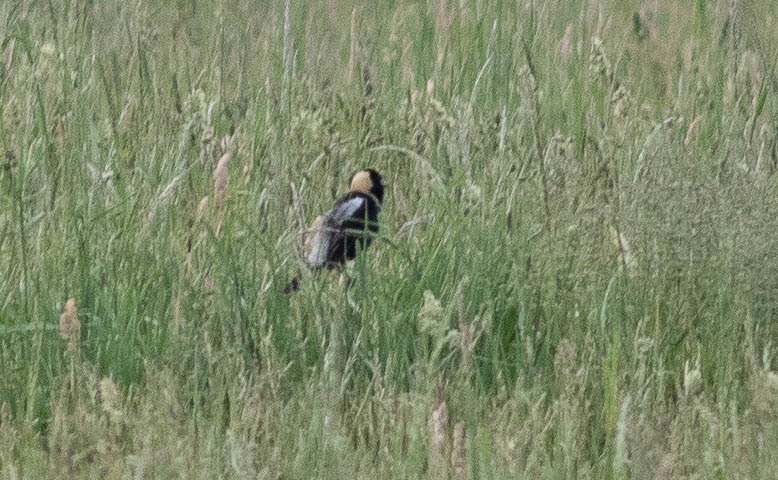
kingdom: Animalia
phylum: Chordata
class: Aves
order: Passeriformes
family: Icteridae
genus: Dolichonyx
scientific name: Dolichonyx oryzivorus
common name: Bobolink
